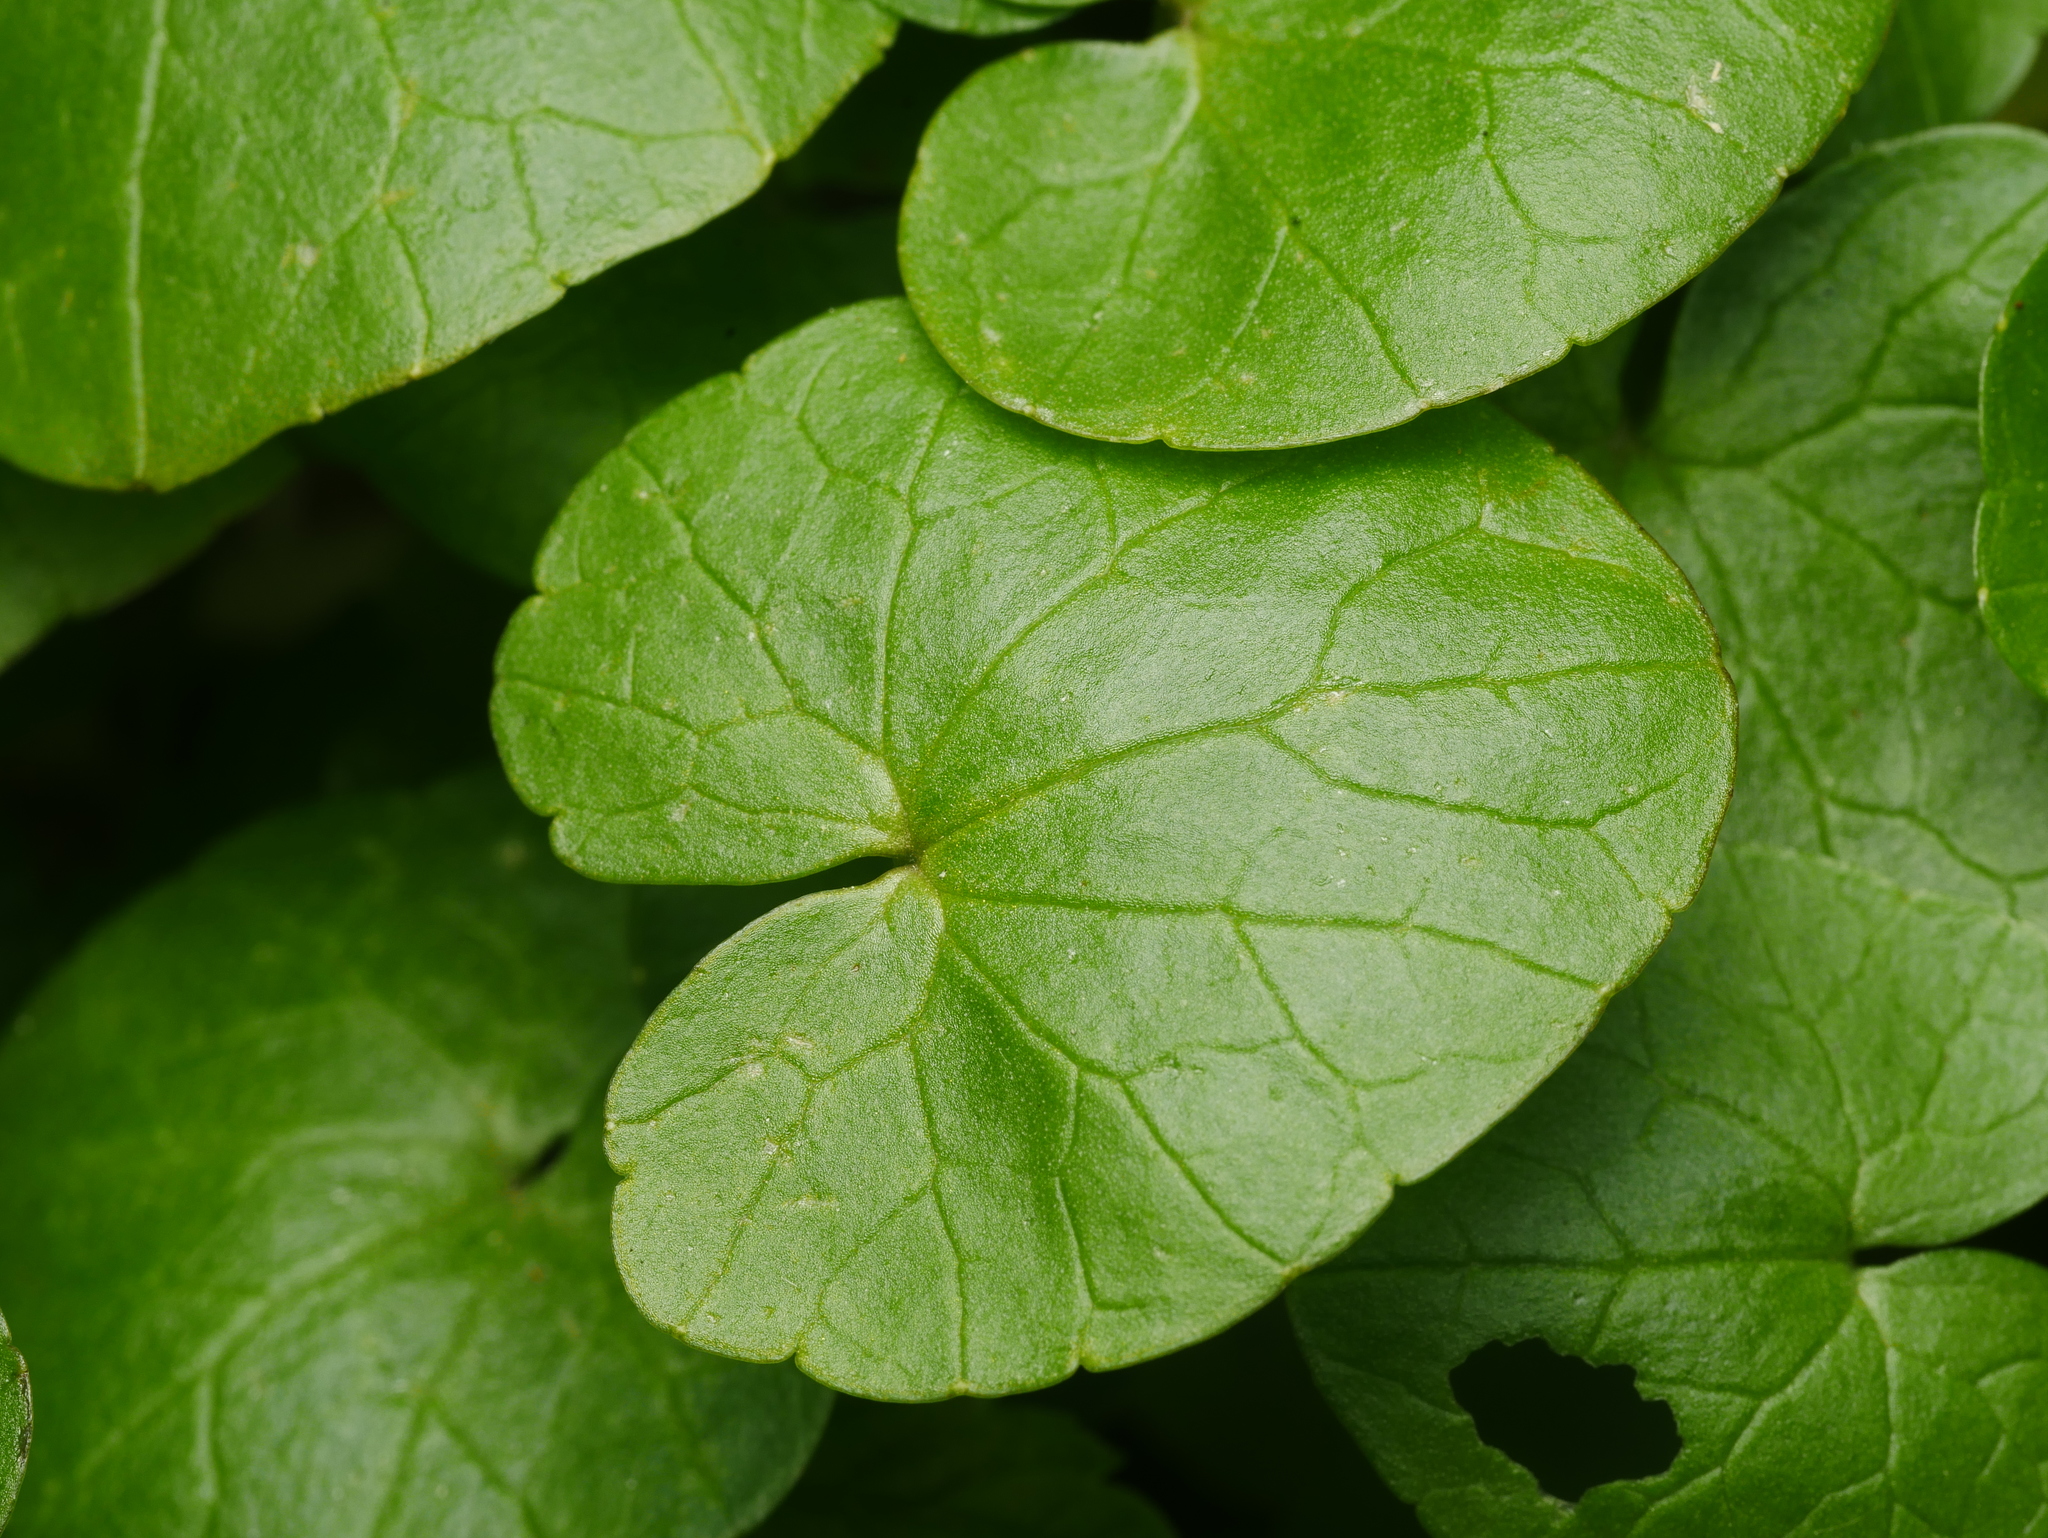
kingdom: Plantae
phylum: Tracheophyta
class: Magnoliopsida
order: Ranunculales
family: Ranunculaceae
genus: Ficaria
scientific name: Ficaria verna
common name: Lesser celandine
